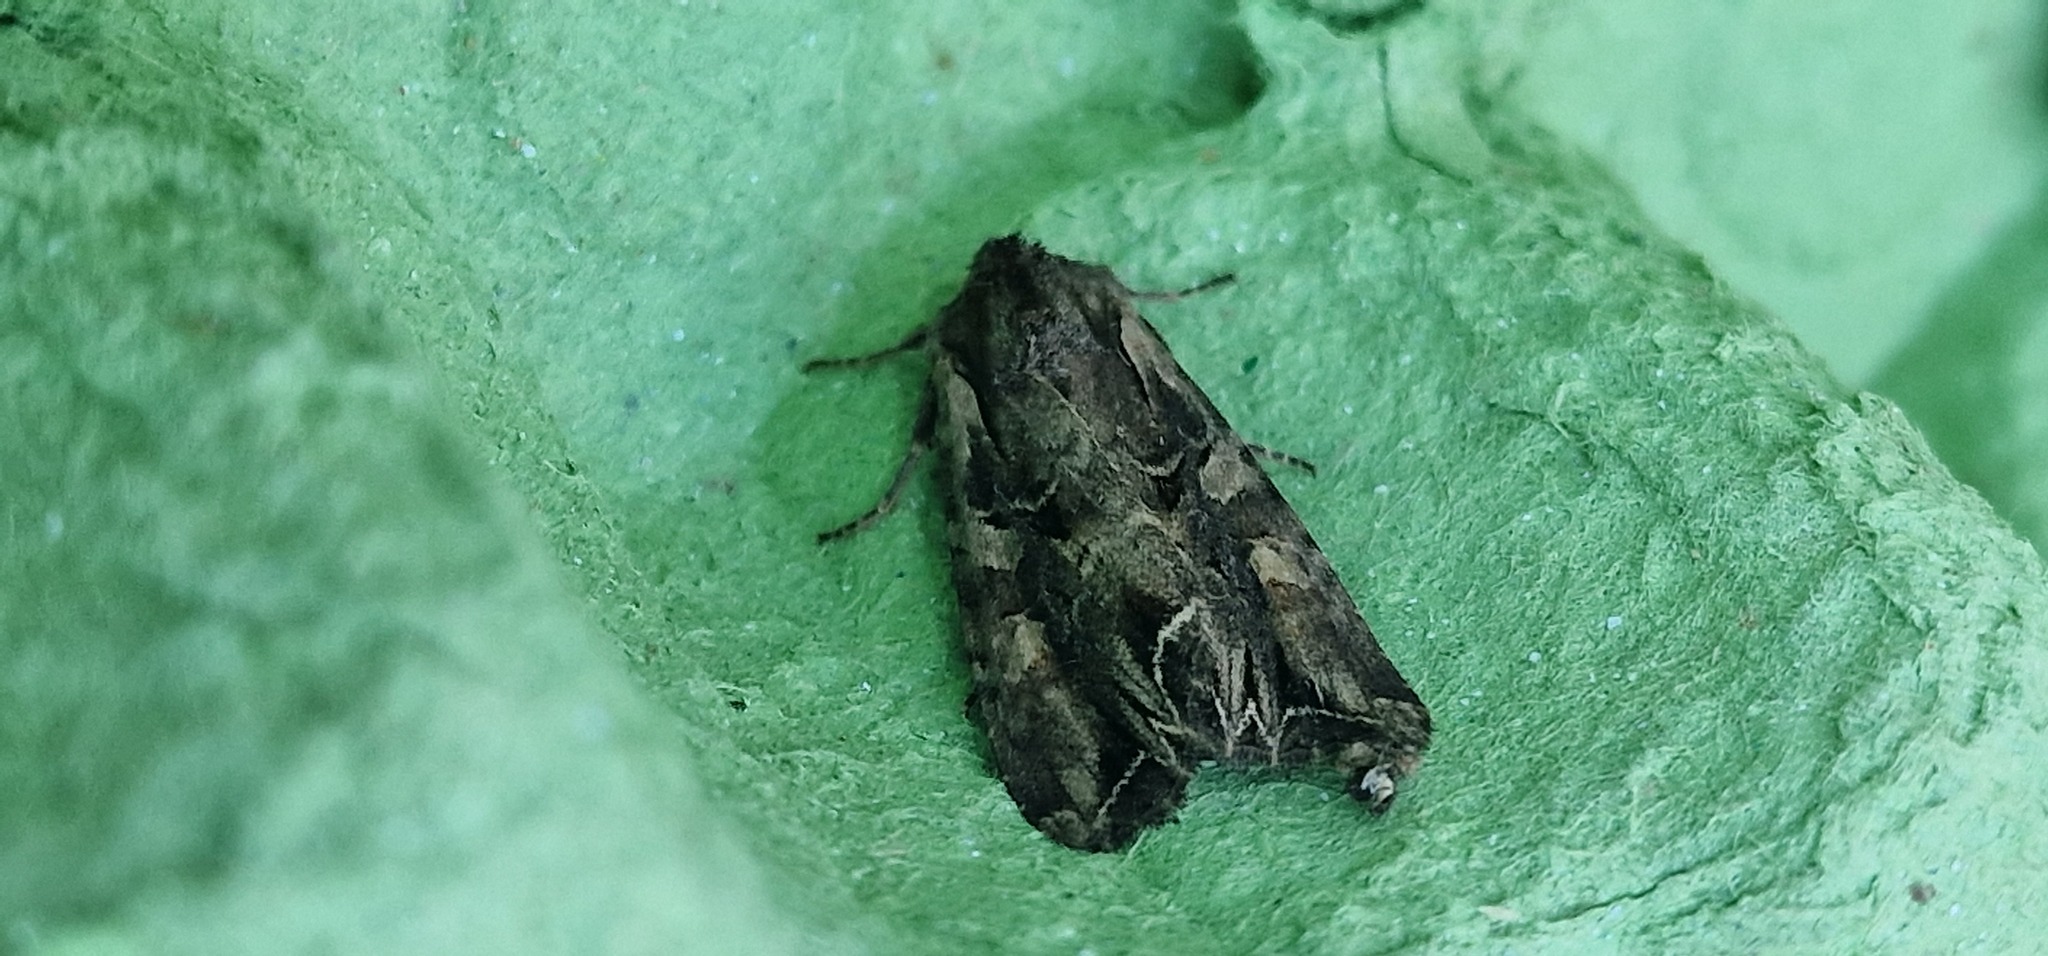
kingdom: Animalia
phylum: Arthropoda
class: Insecta
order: Lepidoptera
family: Noctuidae
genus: Lacanobia
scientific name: Lacanobia suasa
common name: Dog's tooth
